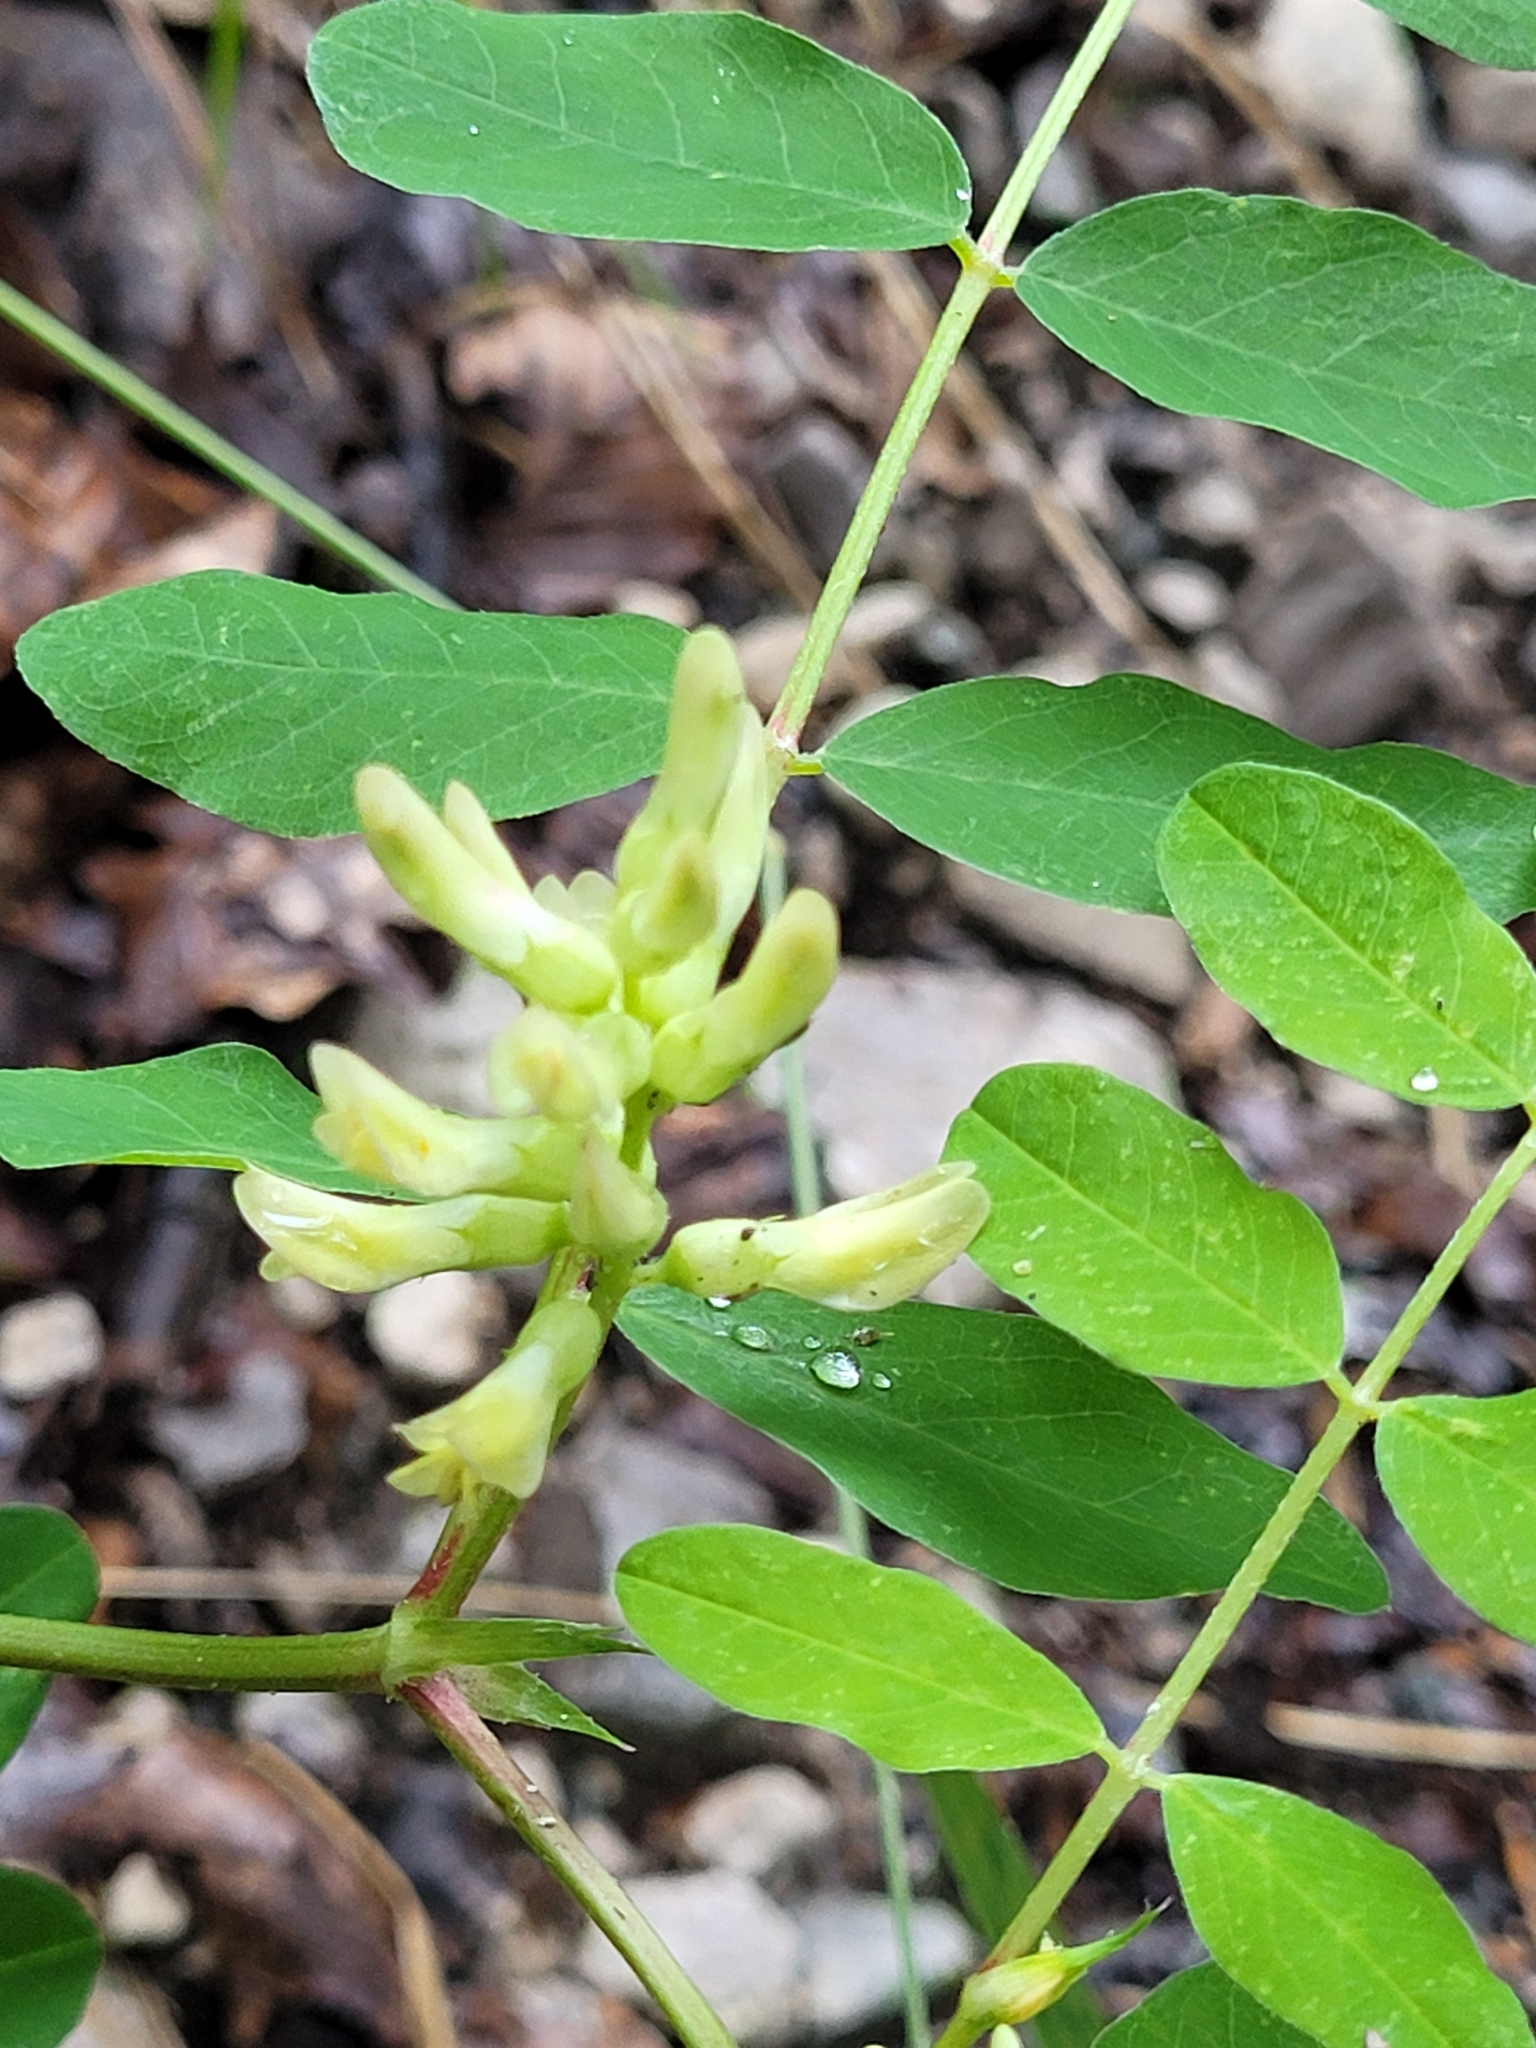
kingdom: Plantae
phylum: Tracheophyta
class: Magnoliopsida
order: Fabales
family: Fabaceae
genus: Astragalus
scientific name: Astragalus glycyphyllos
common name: Wild liquorice
